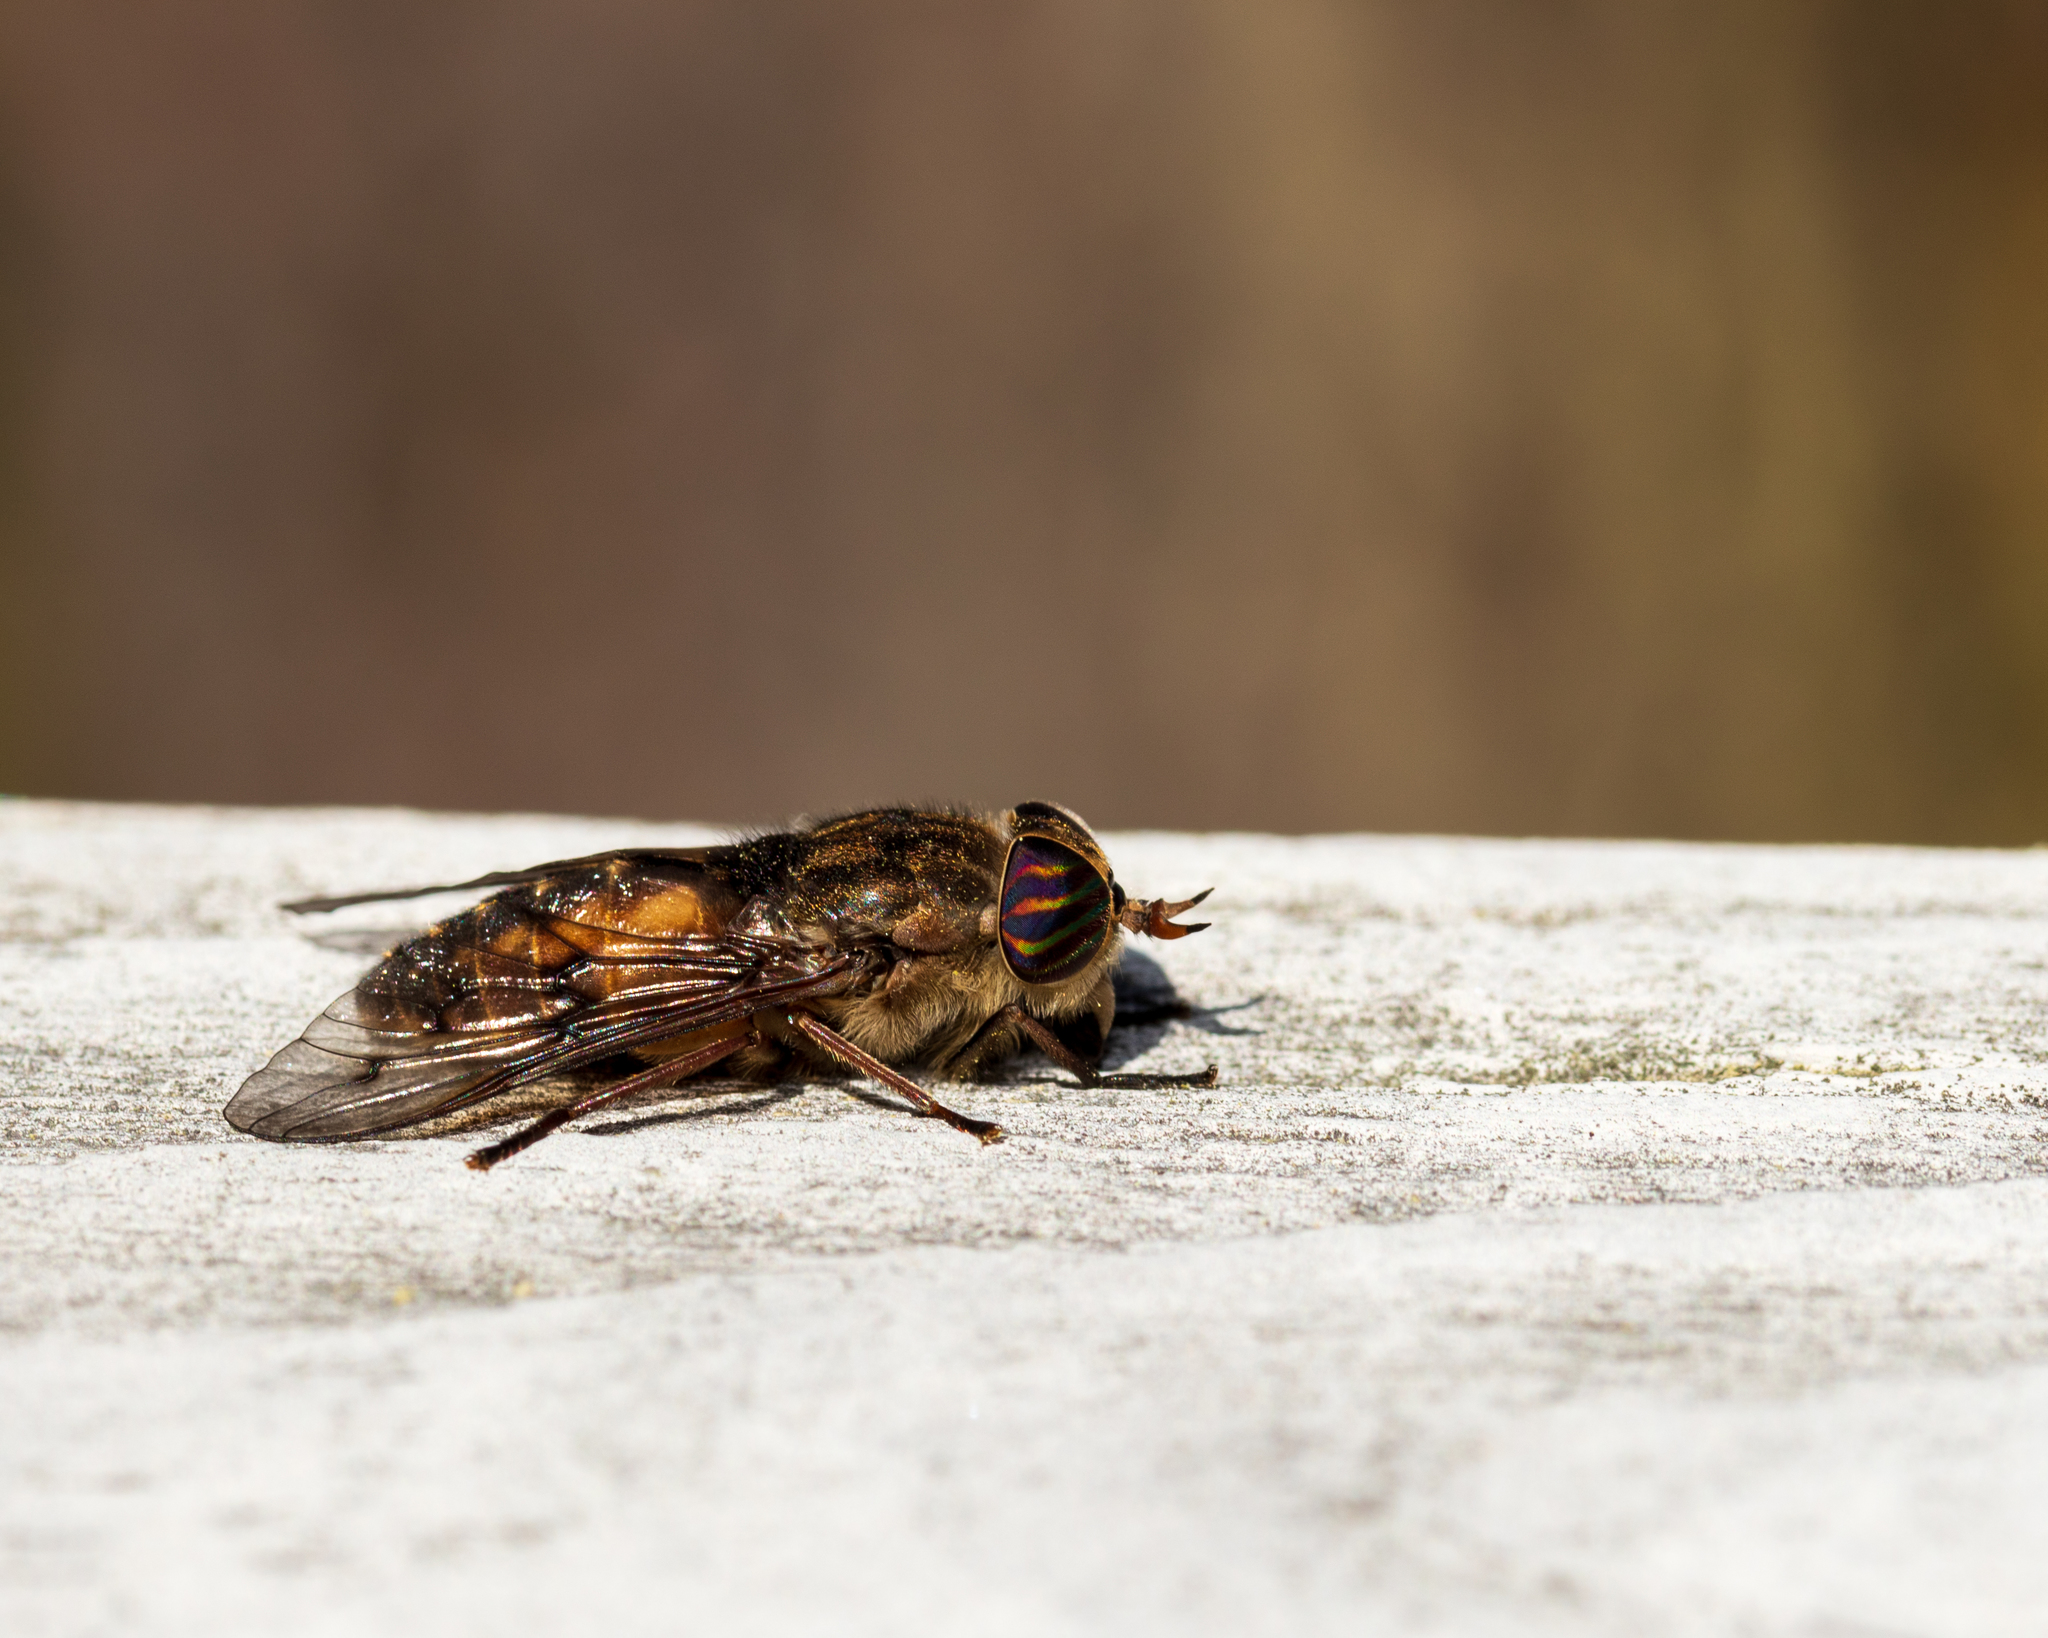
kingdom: Animalia
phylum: Arthropoda
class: Insecta
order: Diptera
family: Tabanidae
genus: Hybomitra
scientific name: Hybomitra lasiophthalma
